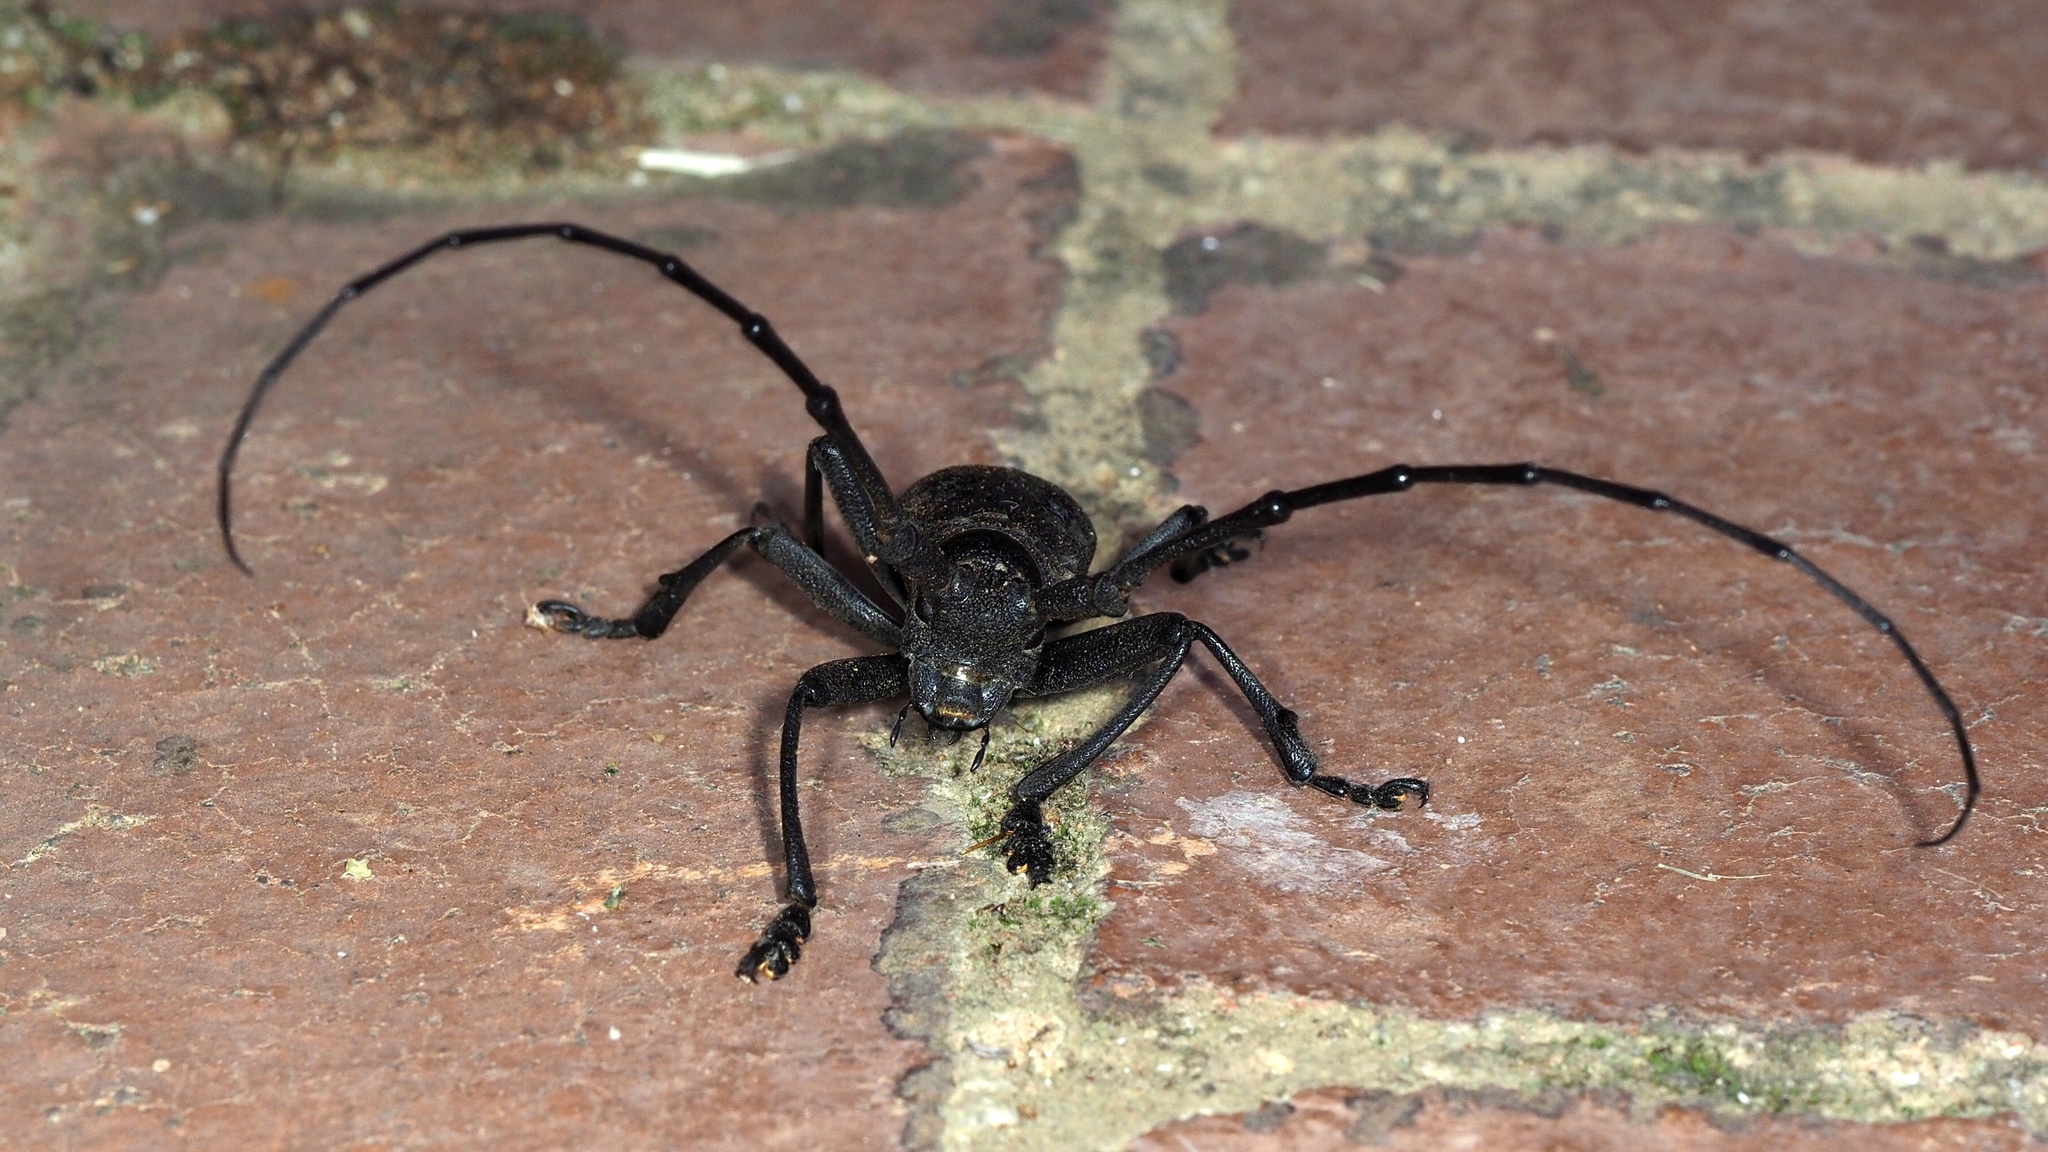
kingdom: Animalia
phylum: Arthropoda
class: Insecta
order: Coleoptera
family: Cerambycidae
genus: Morimus
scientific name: Morimus asper
